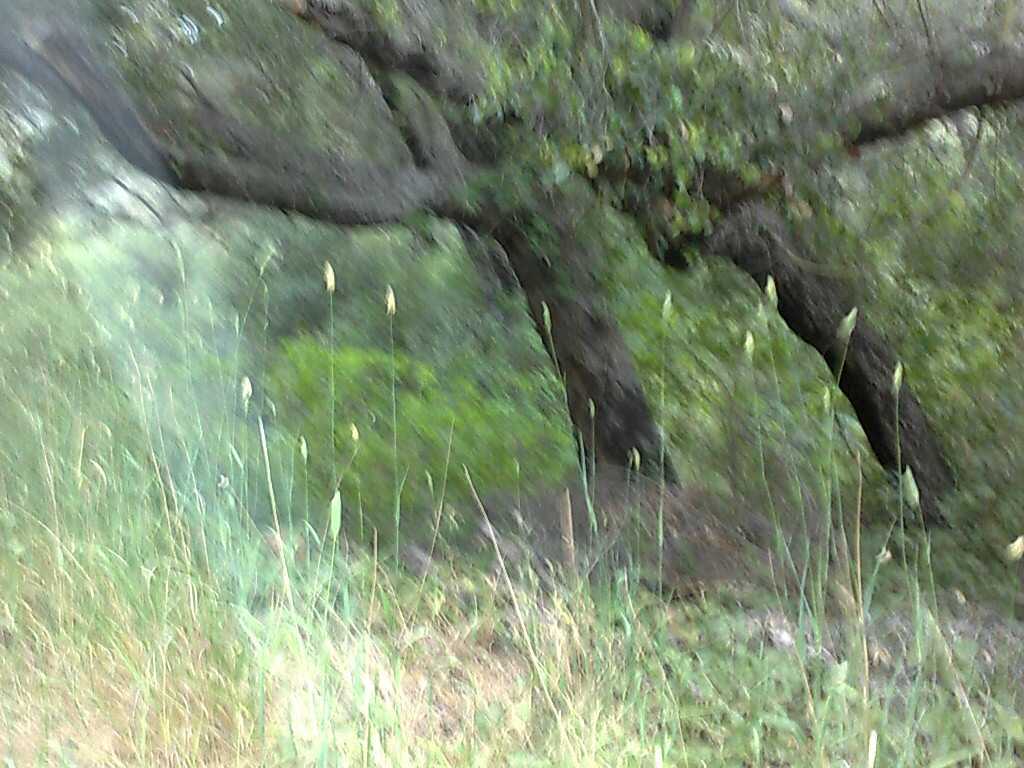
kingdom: Plantae
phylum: Tracheophyta
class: Liliopsida
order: Poales
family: Poaceae
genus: Phalaris
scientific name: Phalaris aquatica
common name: Bulbous canary-grass
